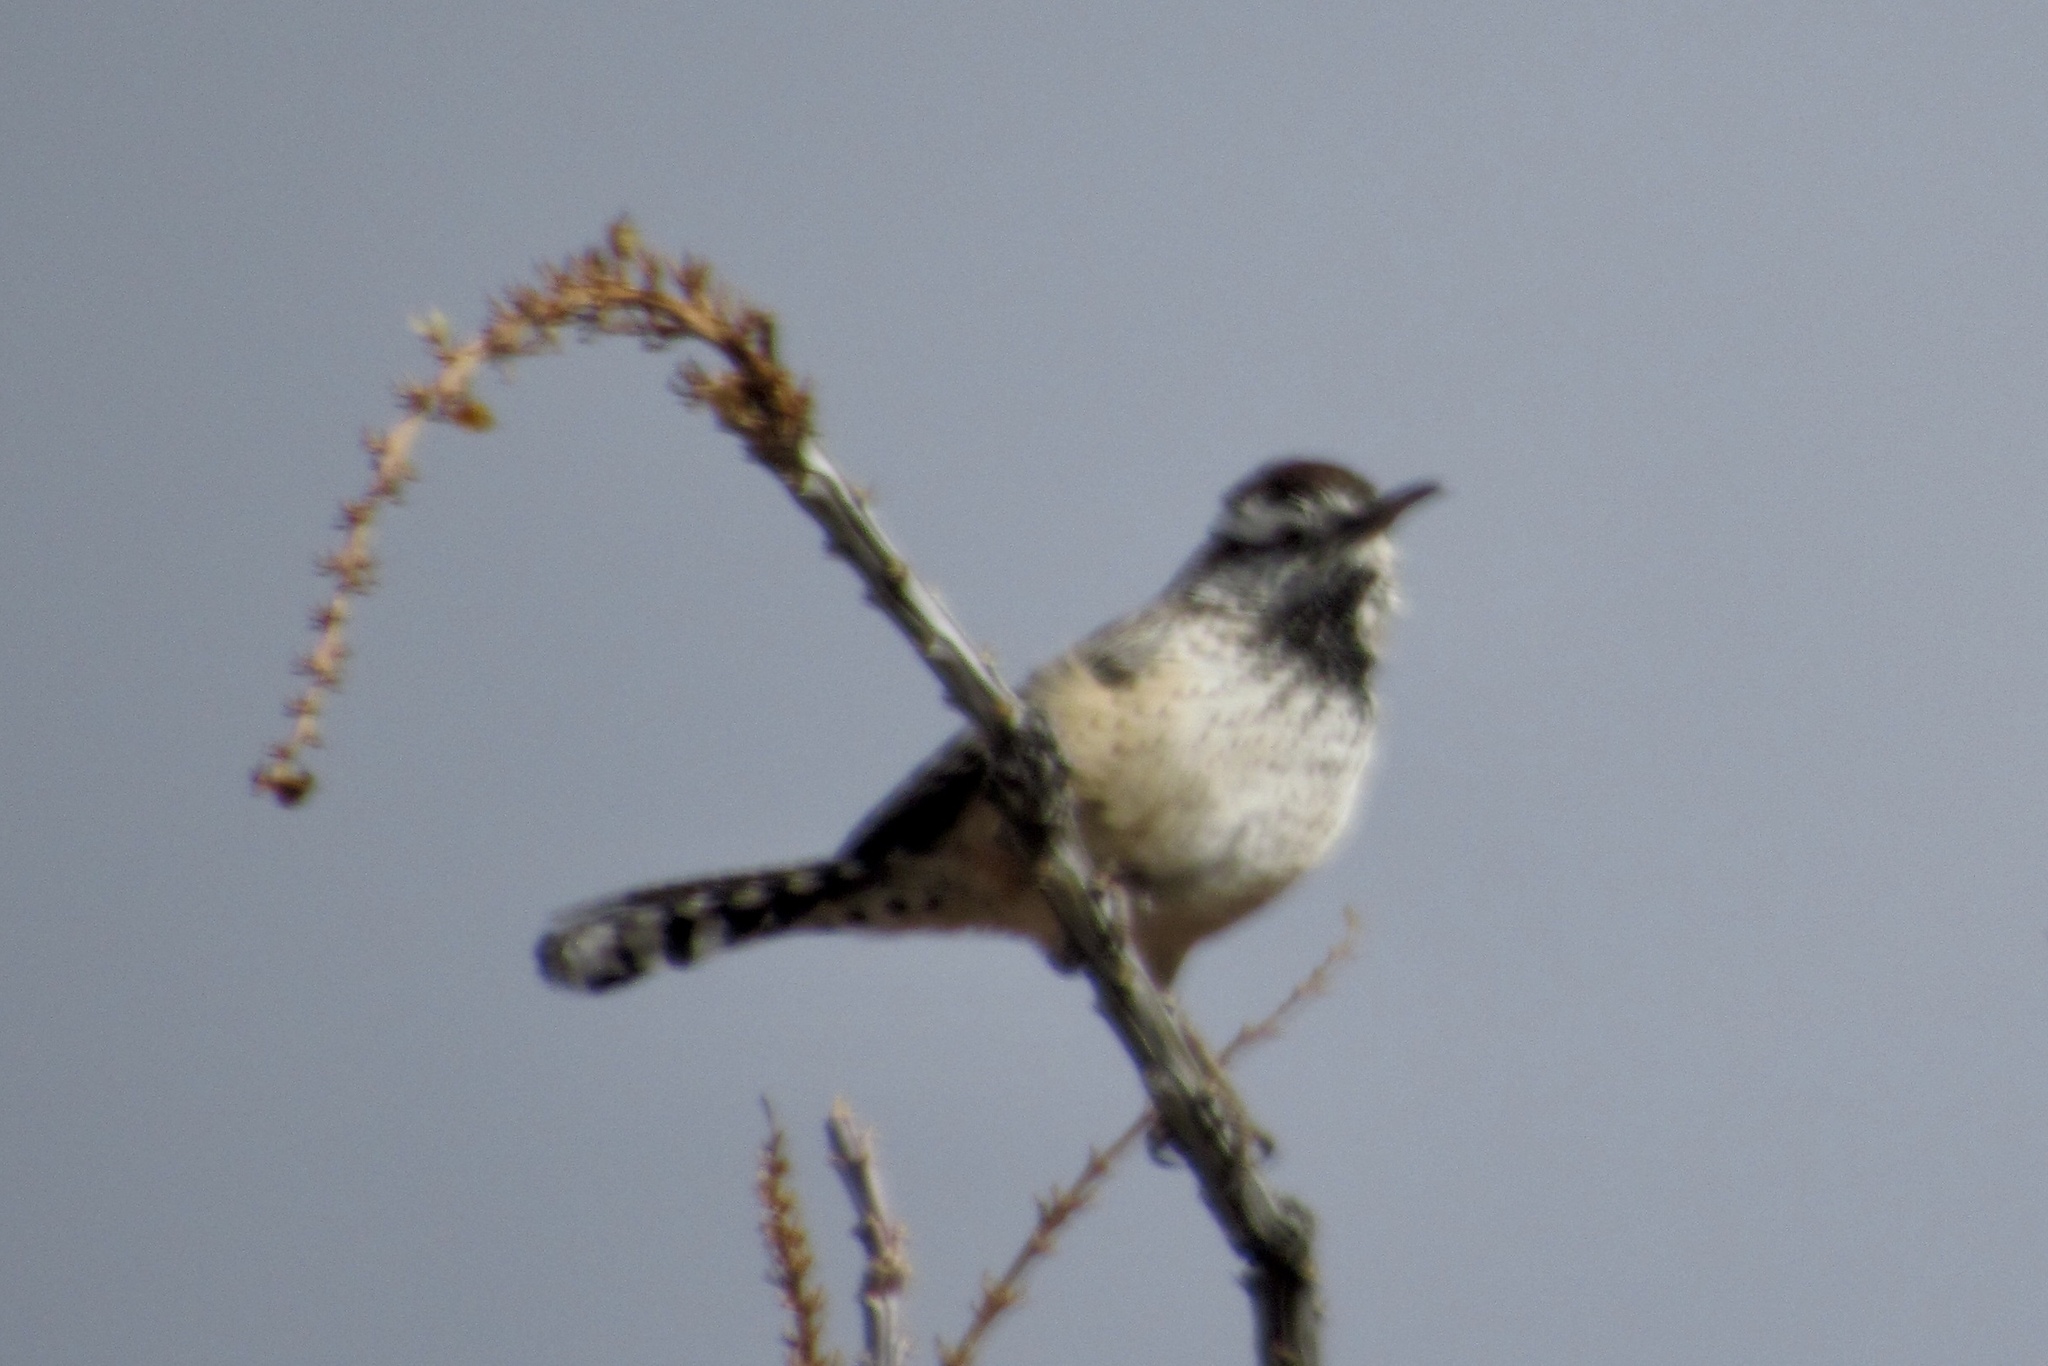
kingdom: Animalia
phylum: Chordata
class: Aves
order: Passeriformes
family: Troglodytidae
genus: Campylorhynchus
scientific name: Campylorhynchus brunneicapillus
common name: Cactus wren
